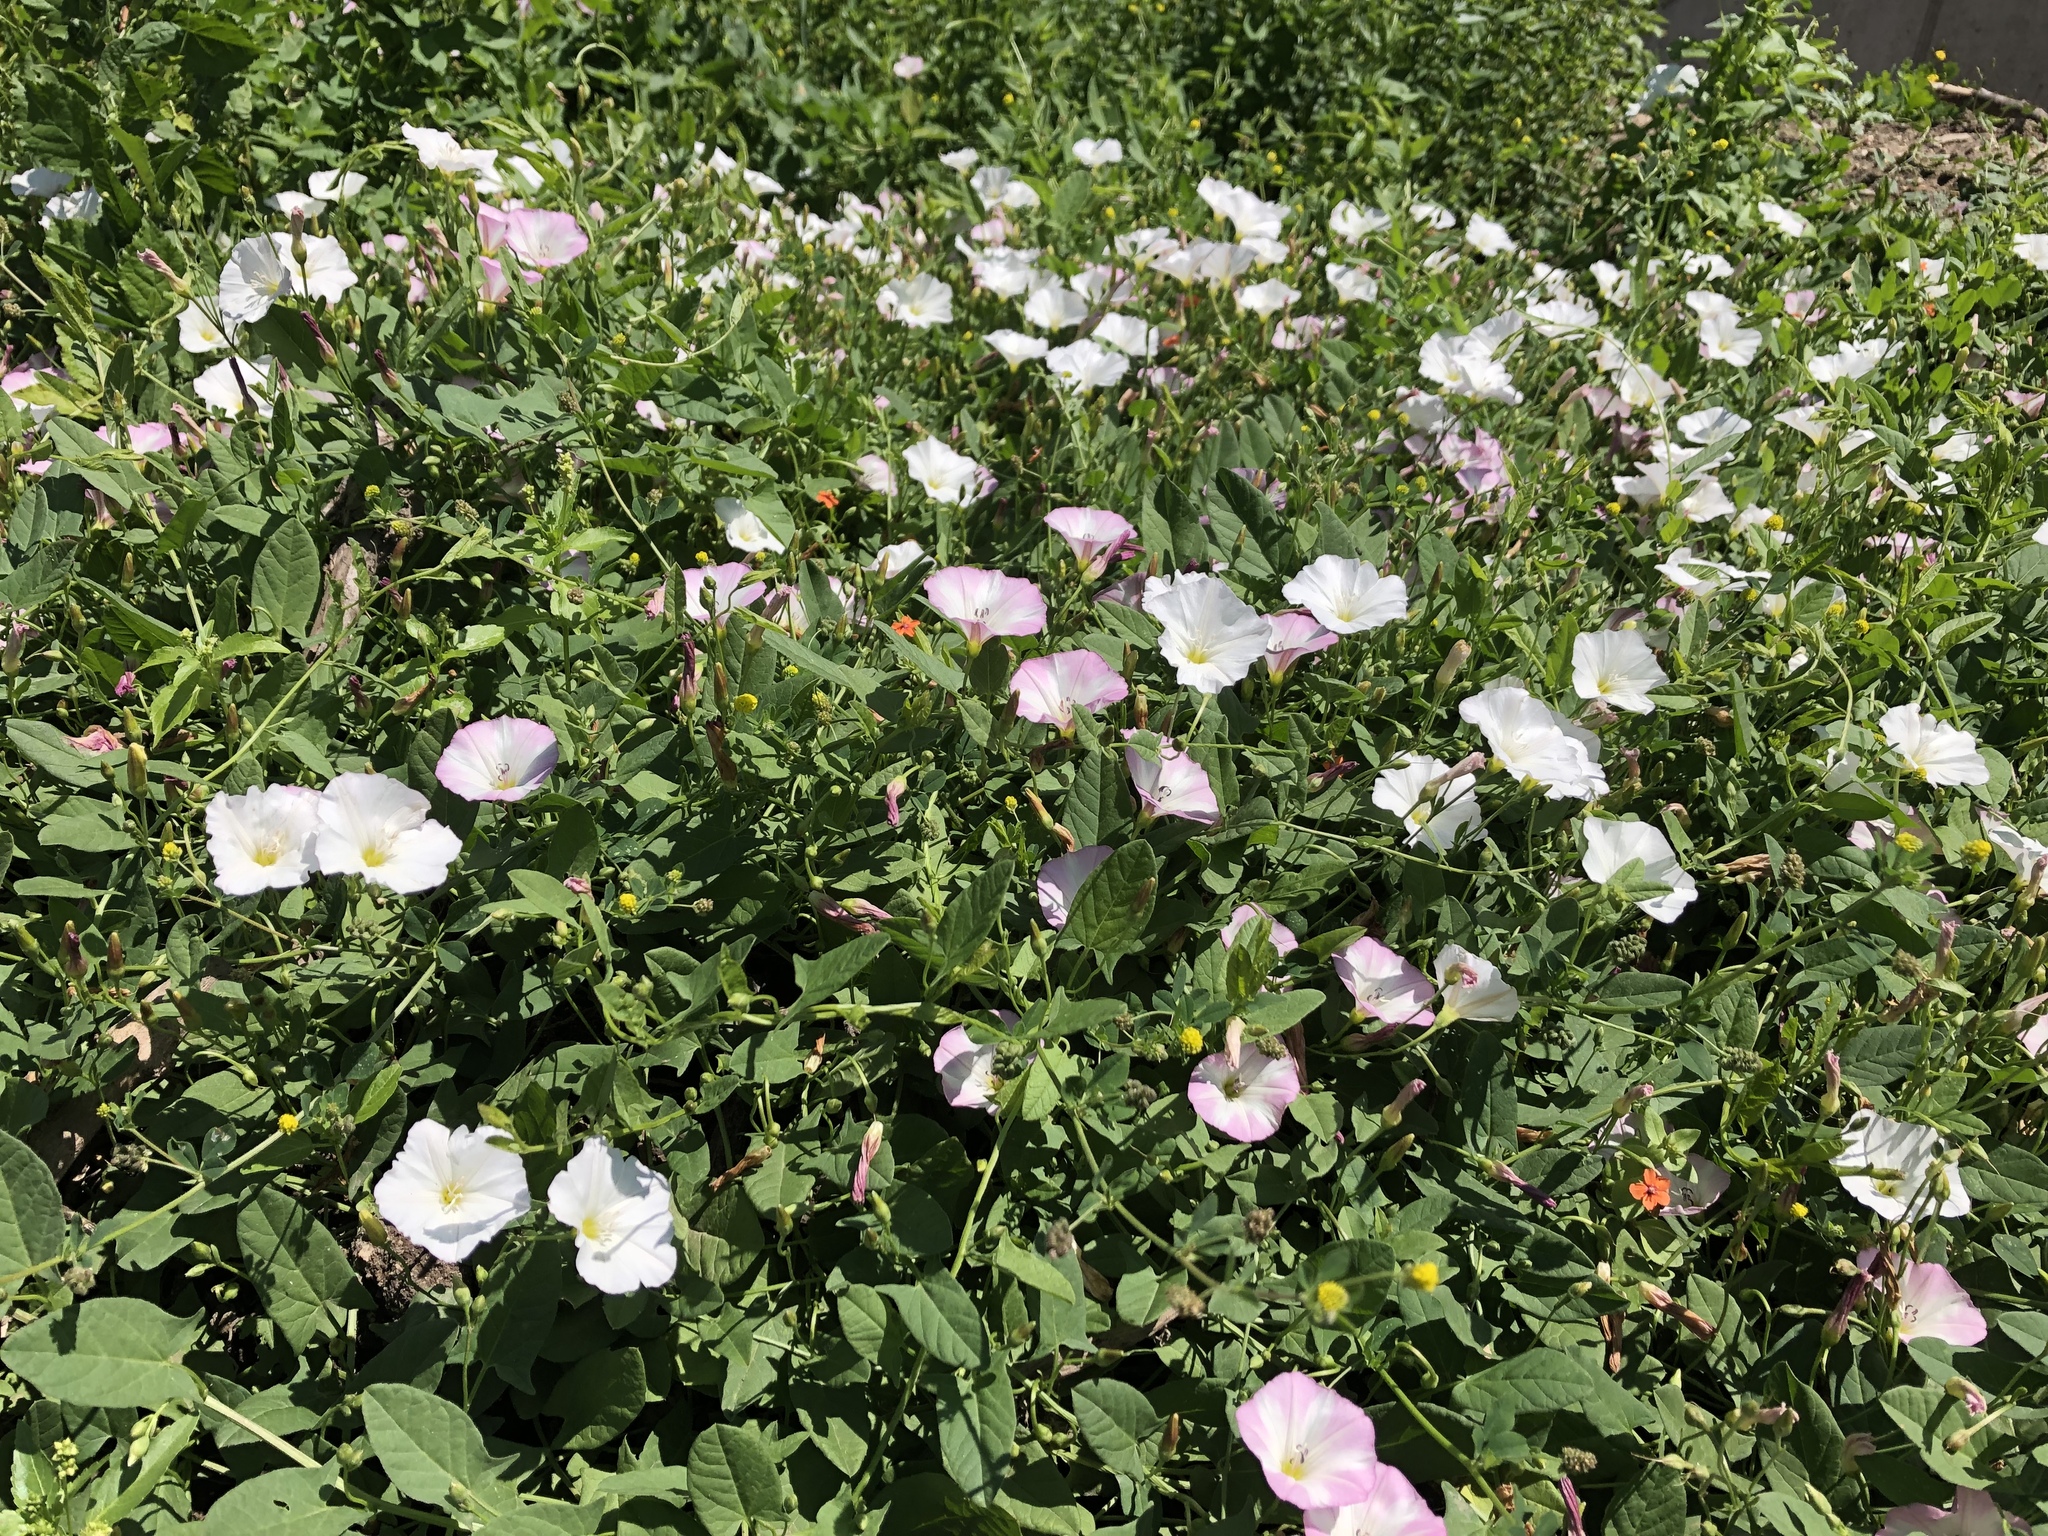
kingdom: Plantae
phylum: Tracheophyta
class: Magnoliopsida
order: Solanales
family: Convolvulaceae
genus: Convolvulus
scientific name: Convolvulus arvensis
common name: Field bindweed
